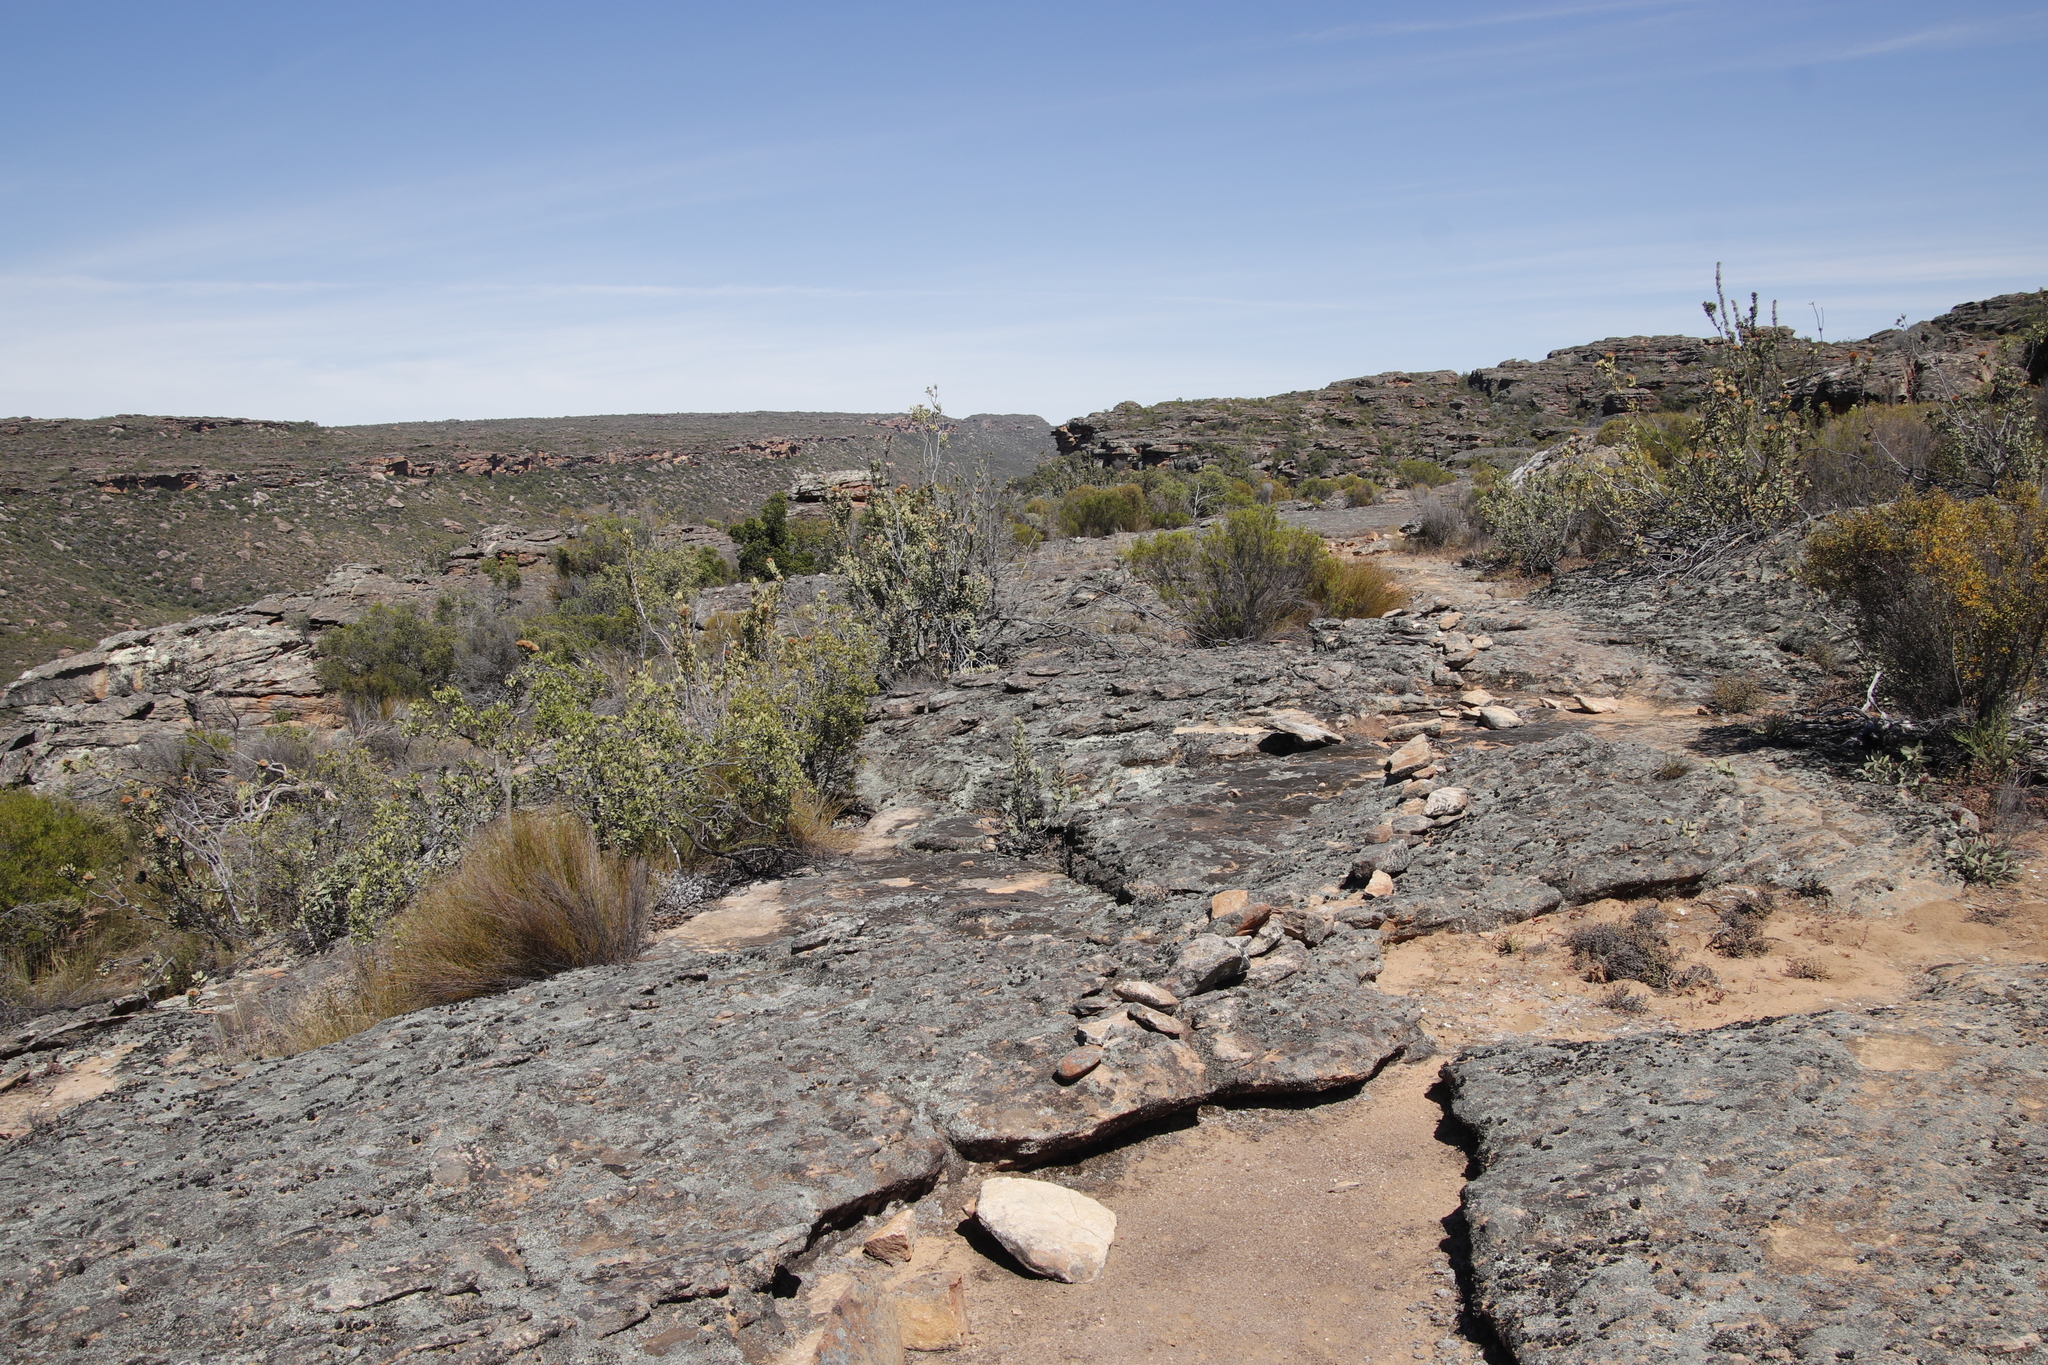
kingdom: Plantae
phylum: Tracheophyta
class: Magnoliopsida
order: Proteales
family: Proteaceae
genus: Protea
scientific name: Protea glabra
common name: Chestnut sugarbush
